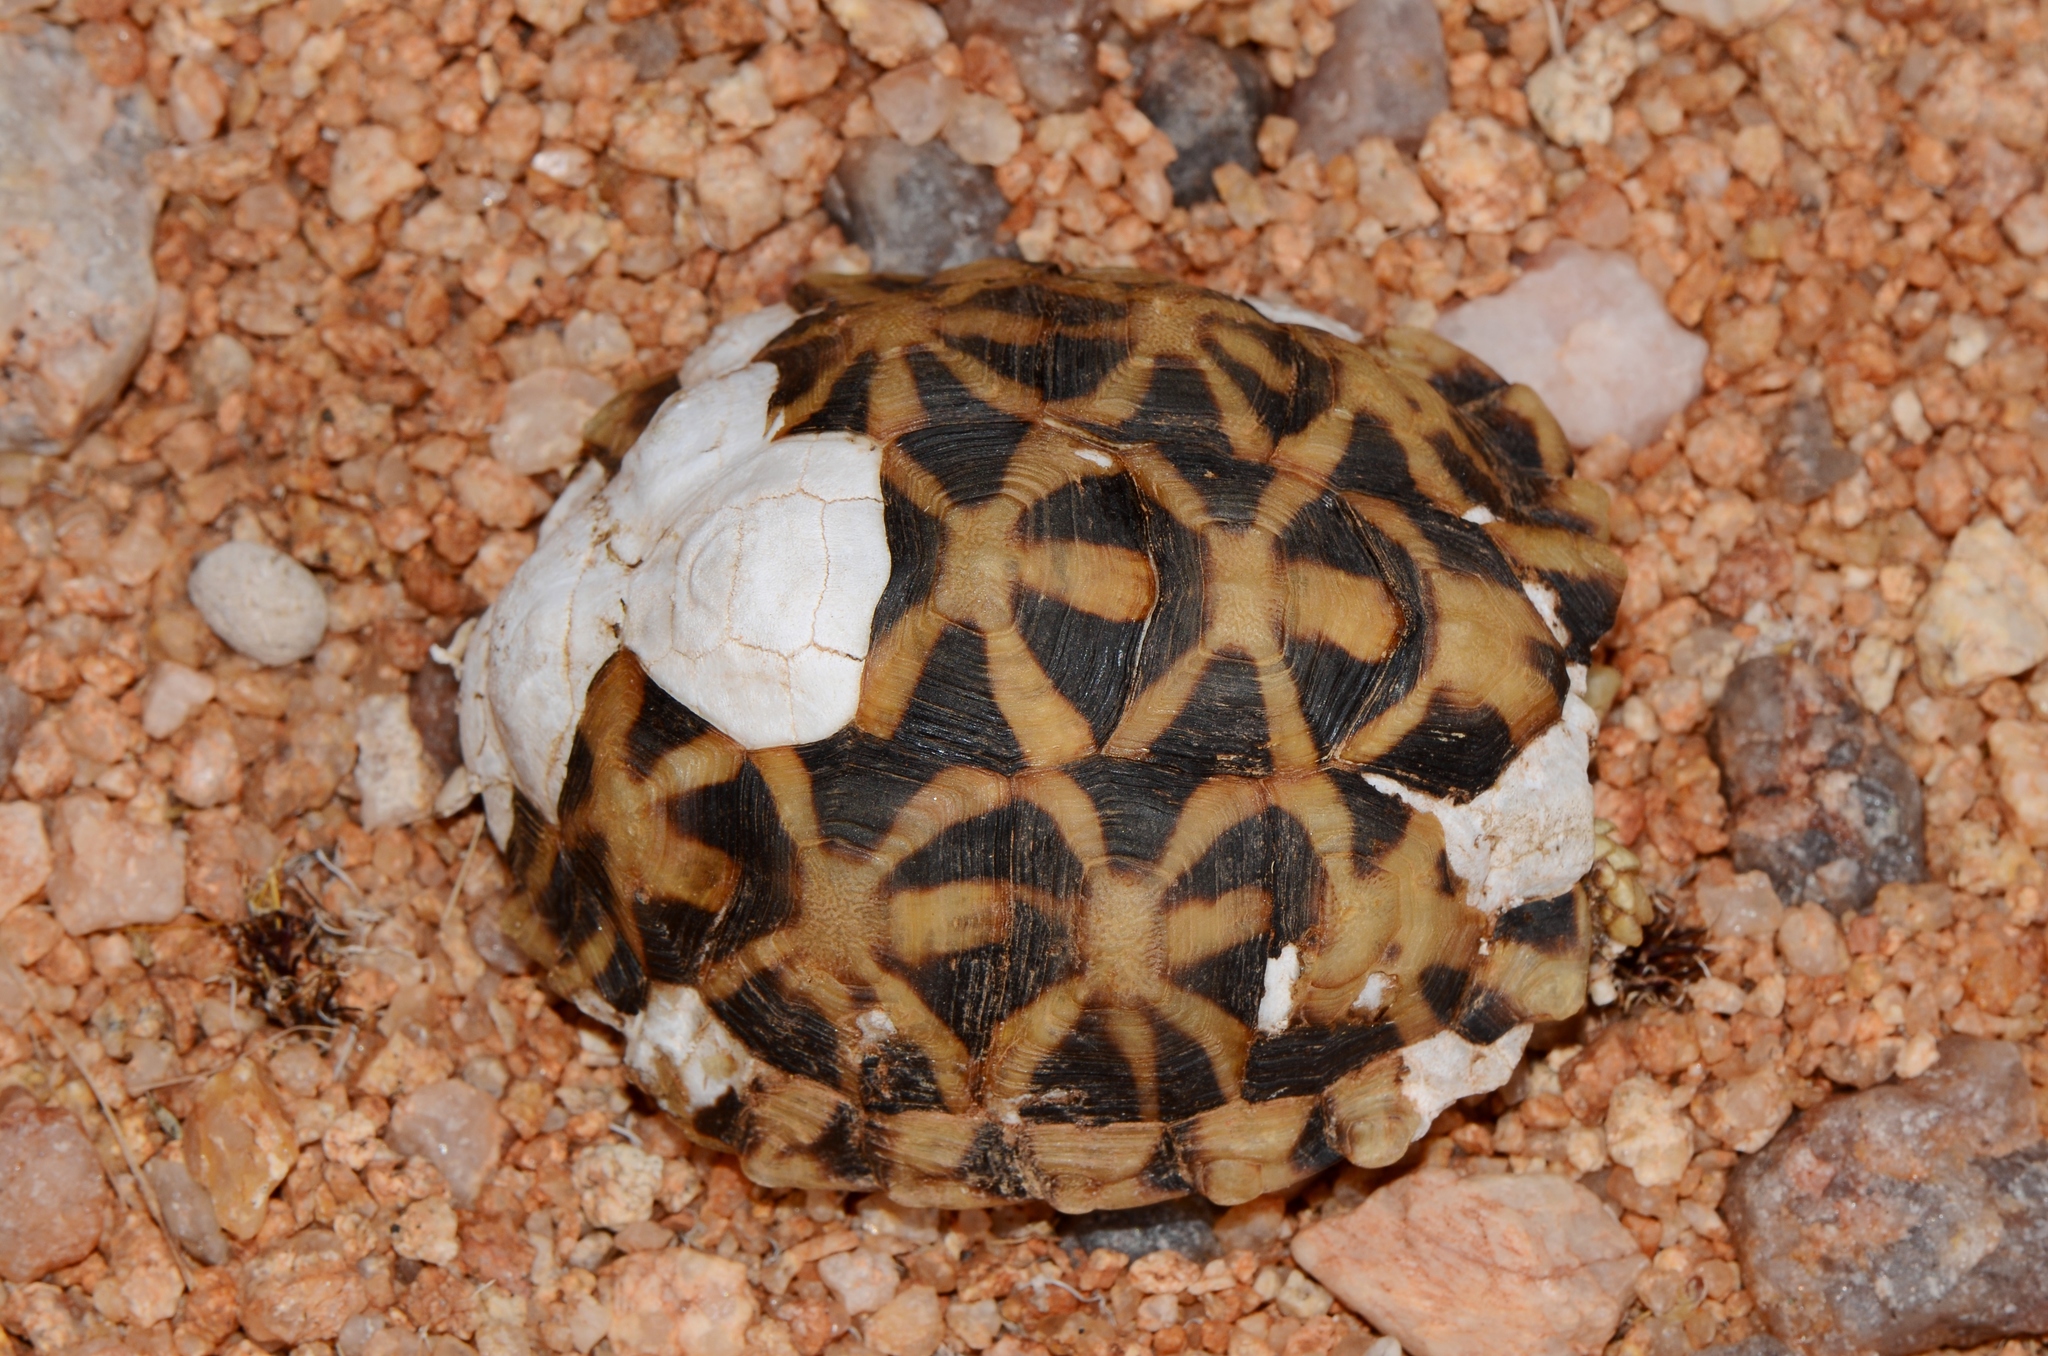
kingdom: Animalia
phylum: Chordata
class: Testudines
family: Testudinidae
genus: Psammobates
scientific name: Psammobates tentorius
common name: Tent tortoise
